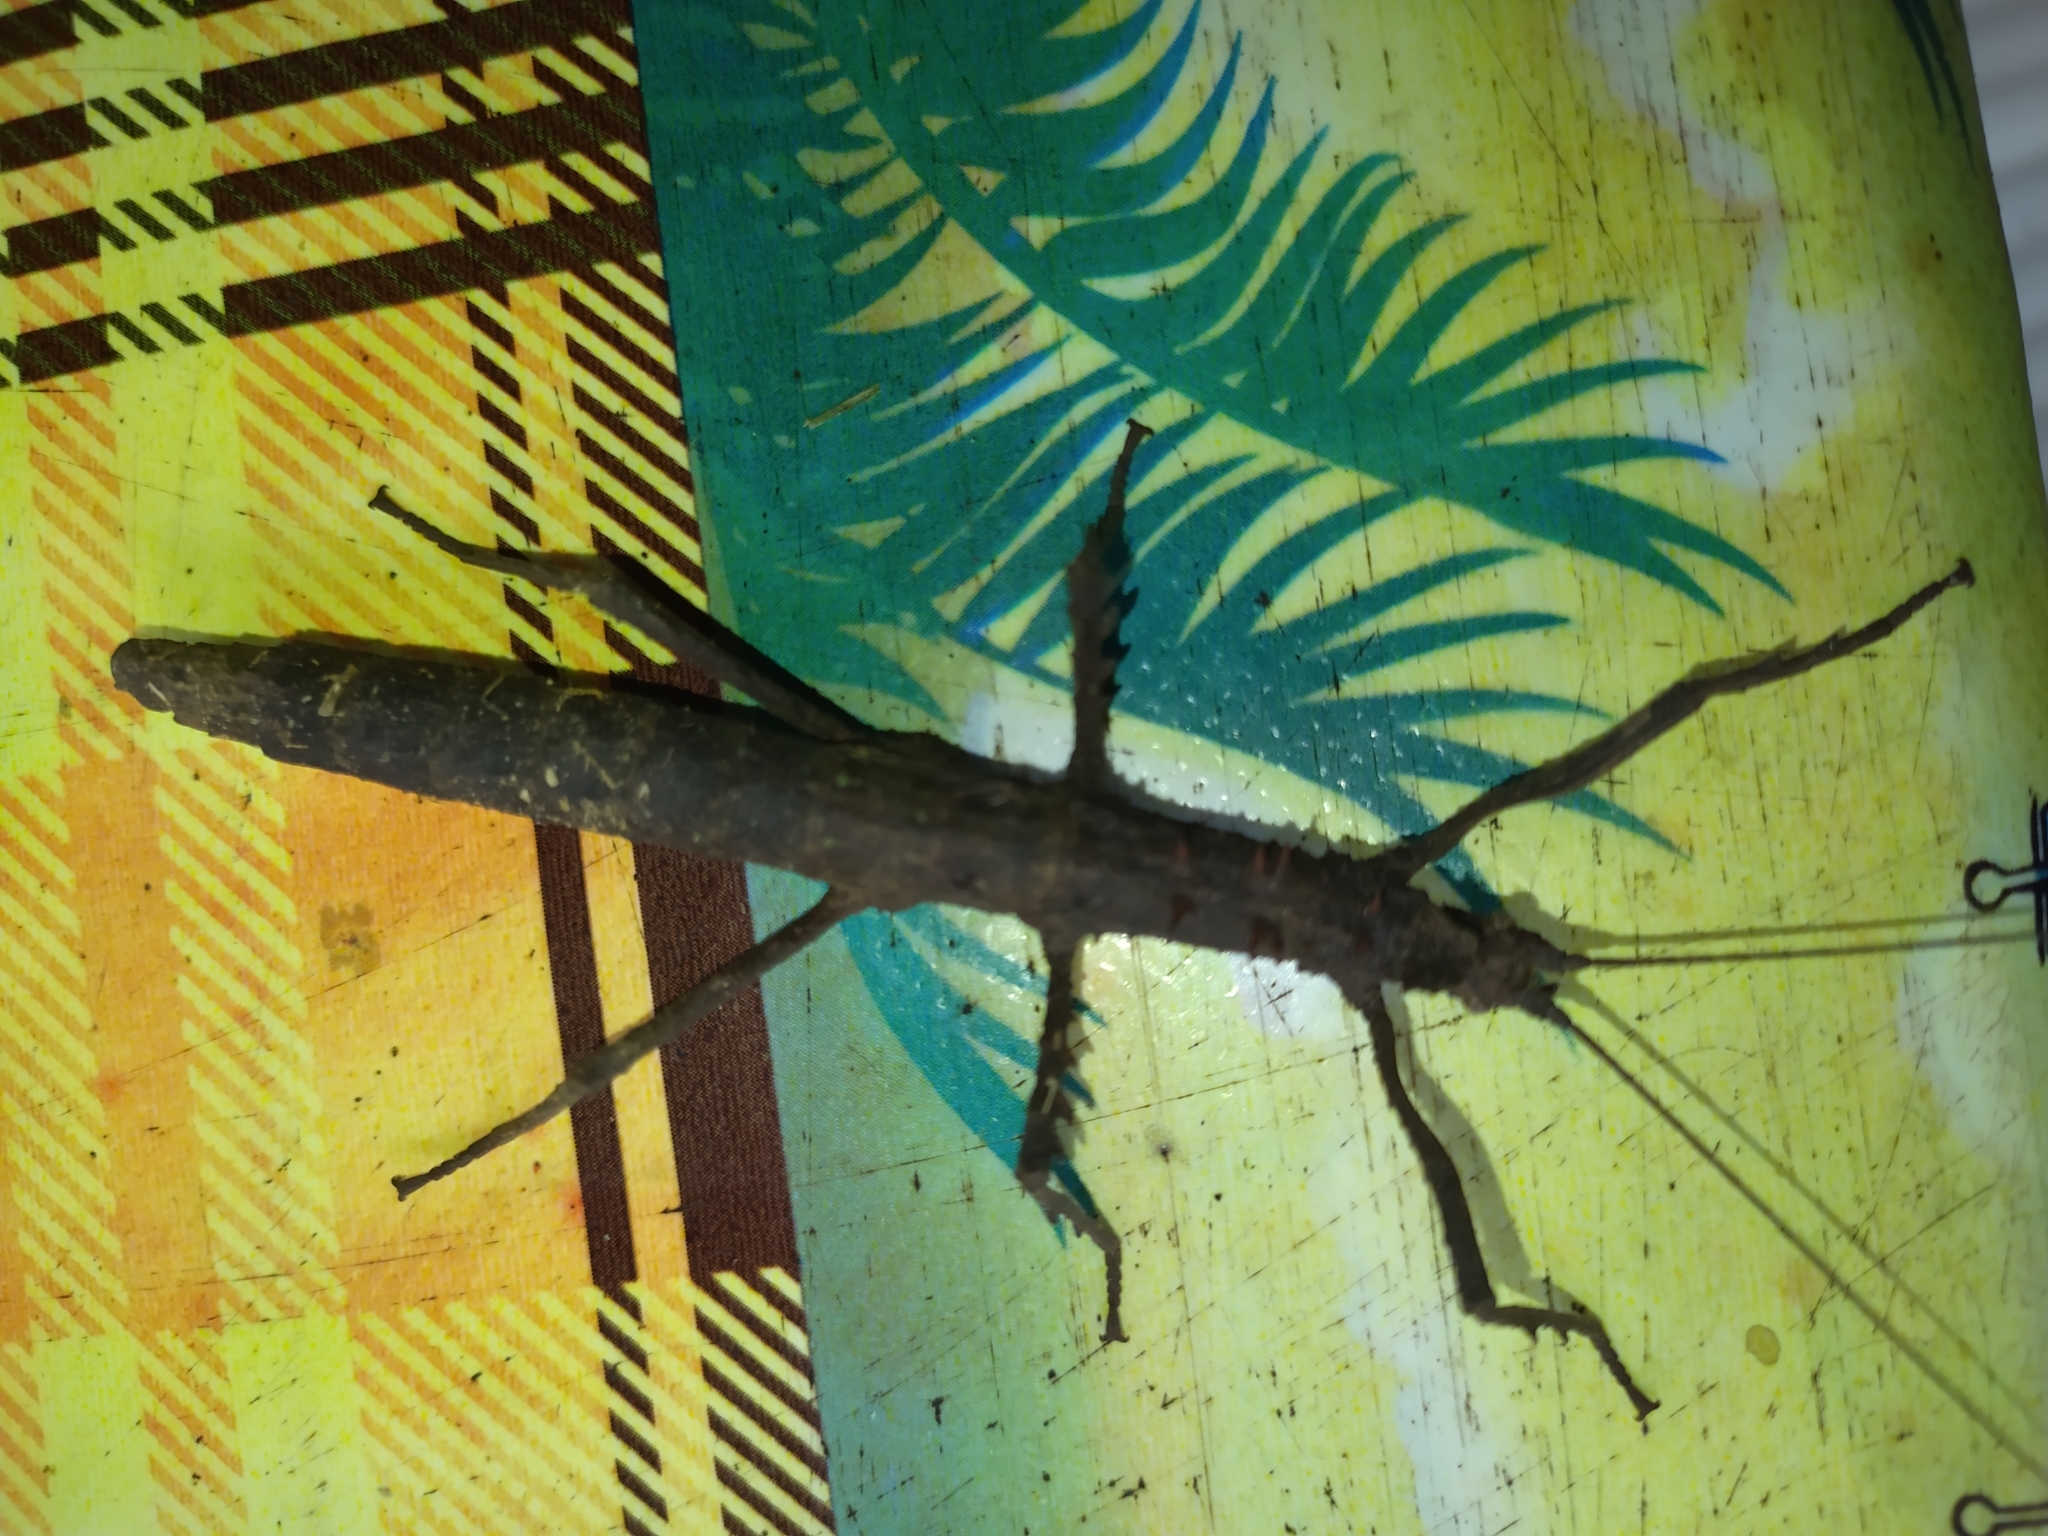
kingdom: Animalia
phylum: Arthropoda
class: Insecta
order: Phasmida
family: Pseudophasmatidae
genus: Creoxylus
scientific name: Creoxylus spinosus
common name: Trinidad log stick insect
